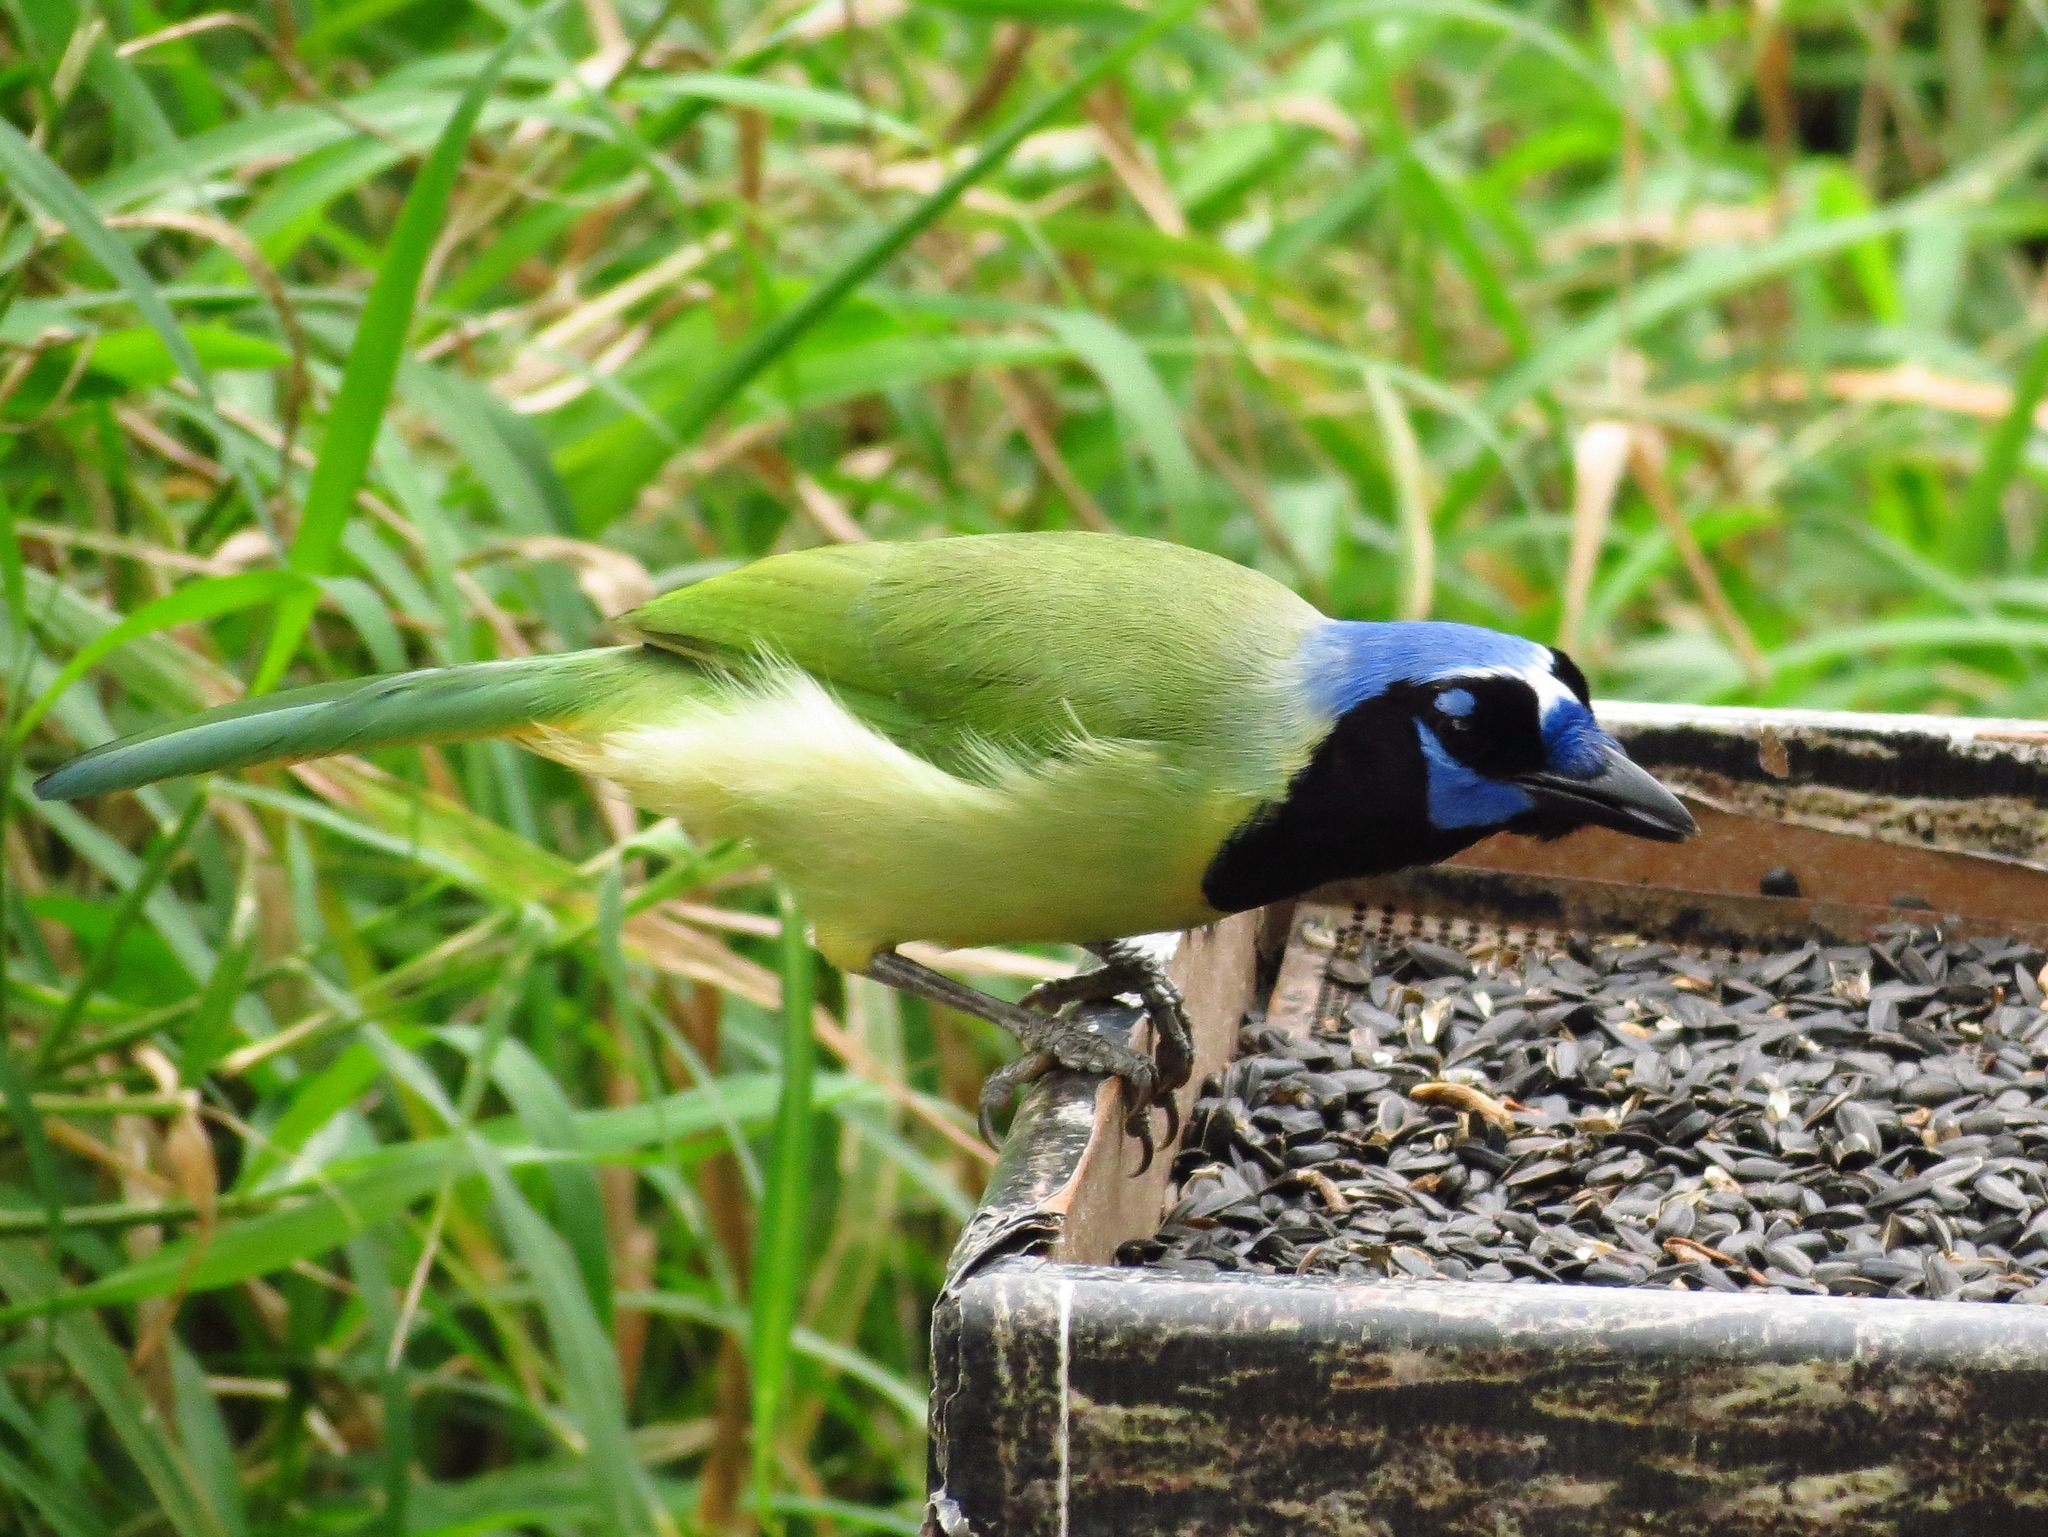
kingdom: Animalia
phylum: Chordata
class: Aves
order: Passeriformes
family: Corvidae
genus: Cyanocorax
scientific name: Cyanocorax yncas
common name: Green jay
